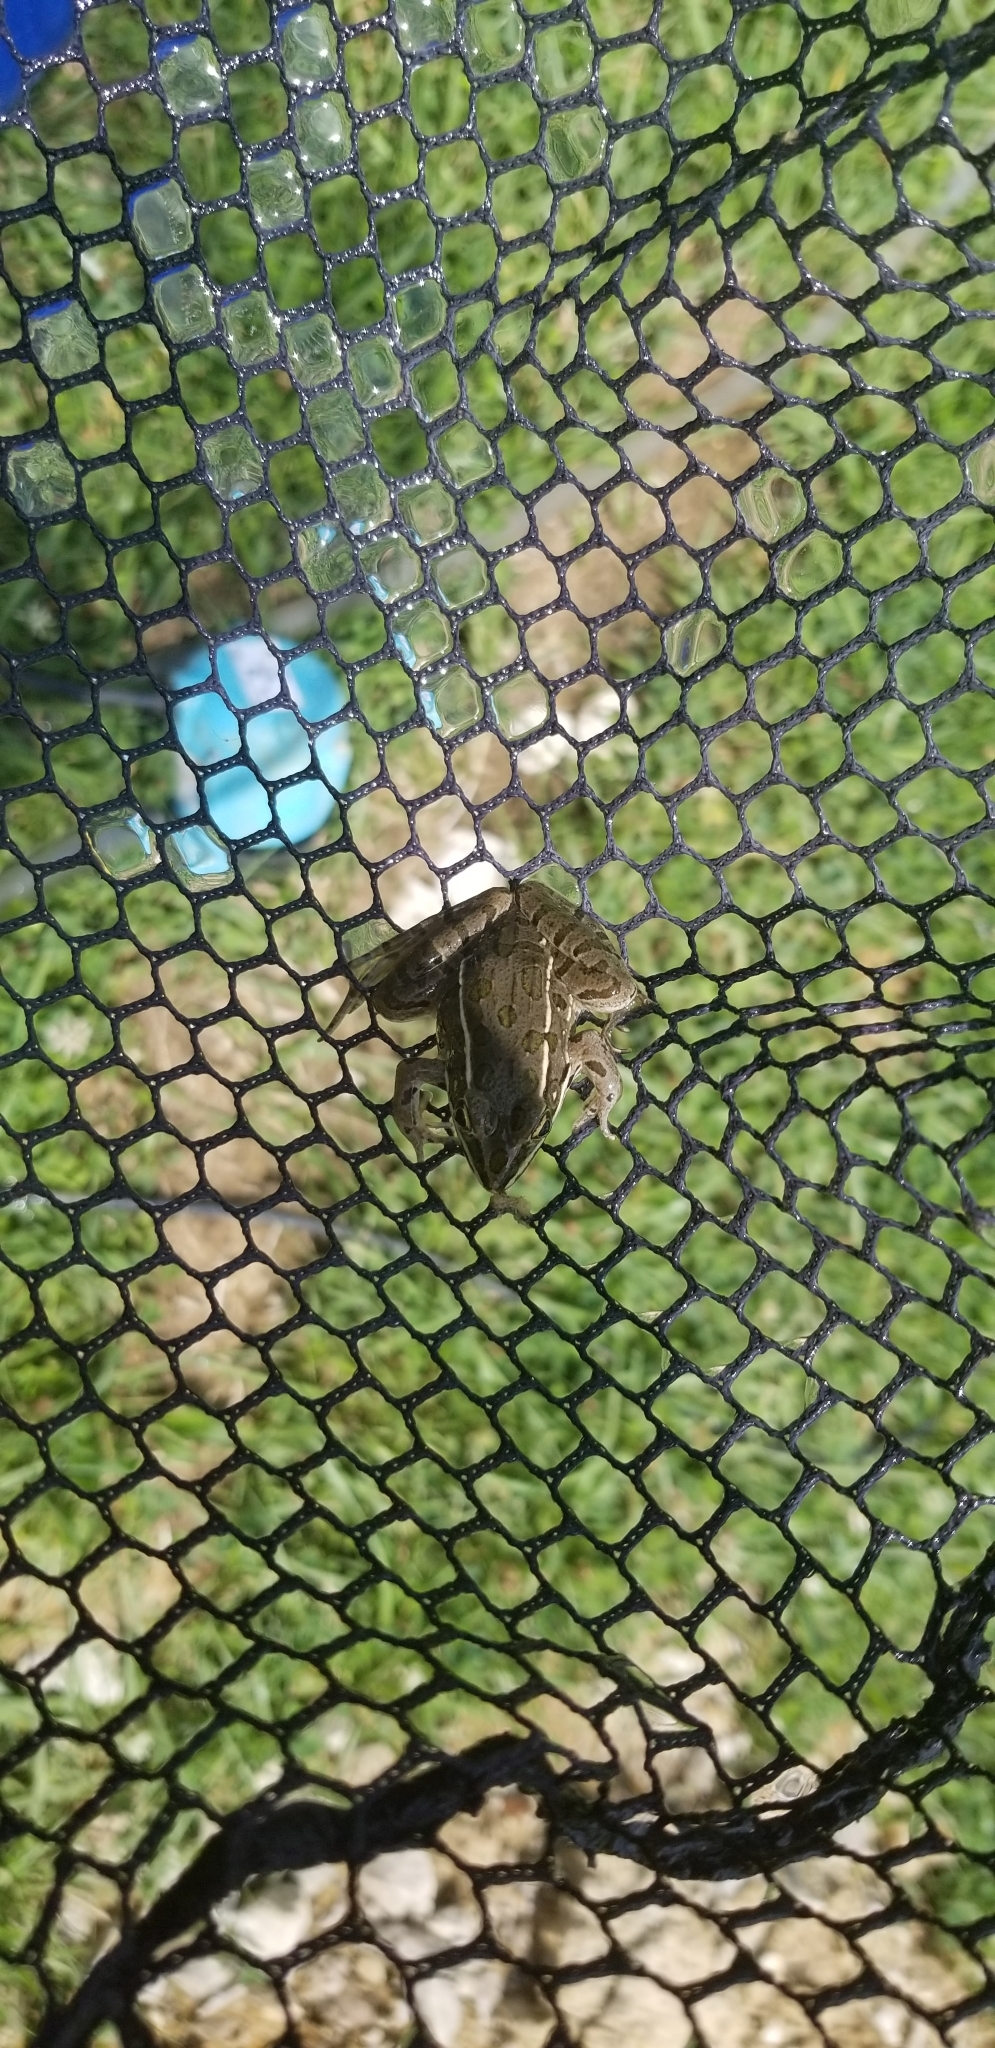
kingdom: Animalia
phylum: Chordata
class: Amphibia
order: Anura
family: Ranidae
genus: Lithobates
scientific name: Lithobates blairi
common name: Plains leopard frog
